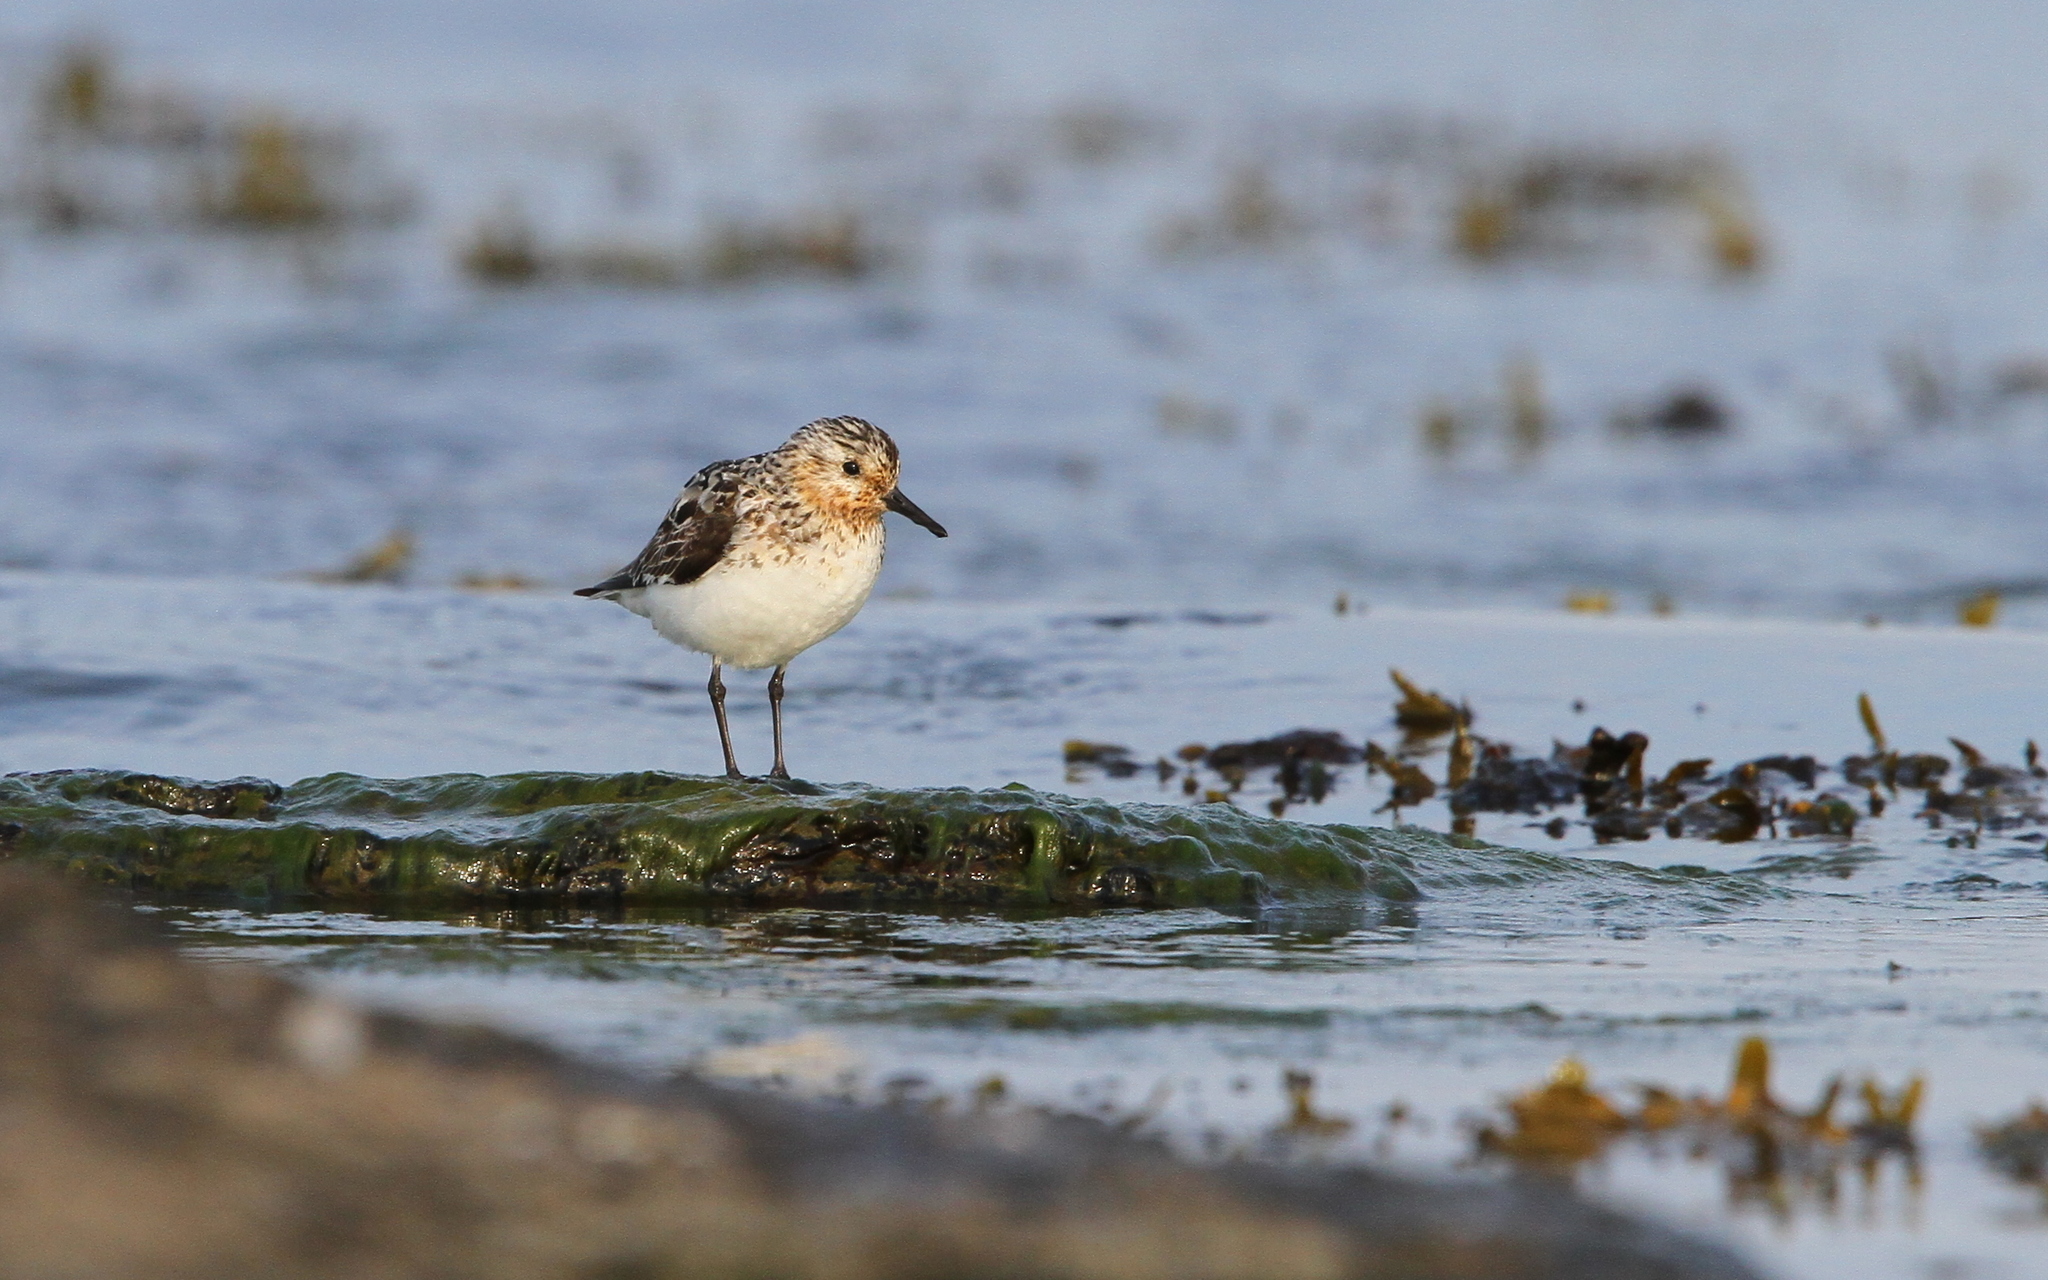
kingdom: Animalia
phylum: Chordata
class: Aves
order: Charadriiformes
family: Scolopacidae
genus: Calidris
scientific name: Calidris alba
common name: Sanderling
